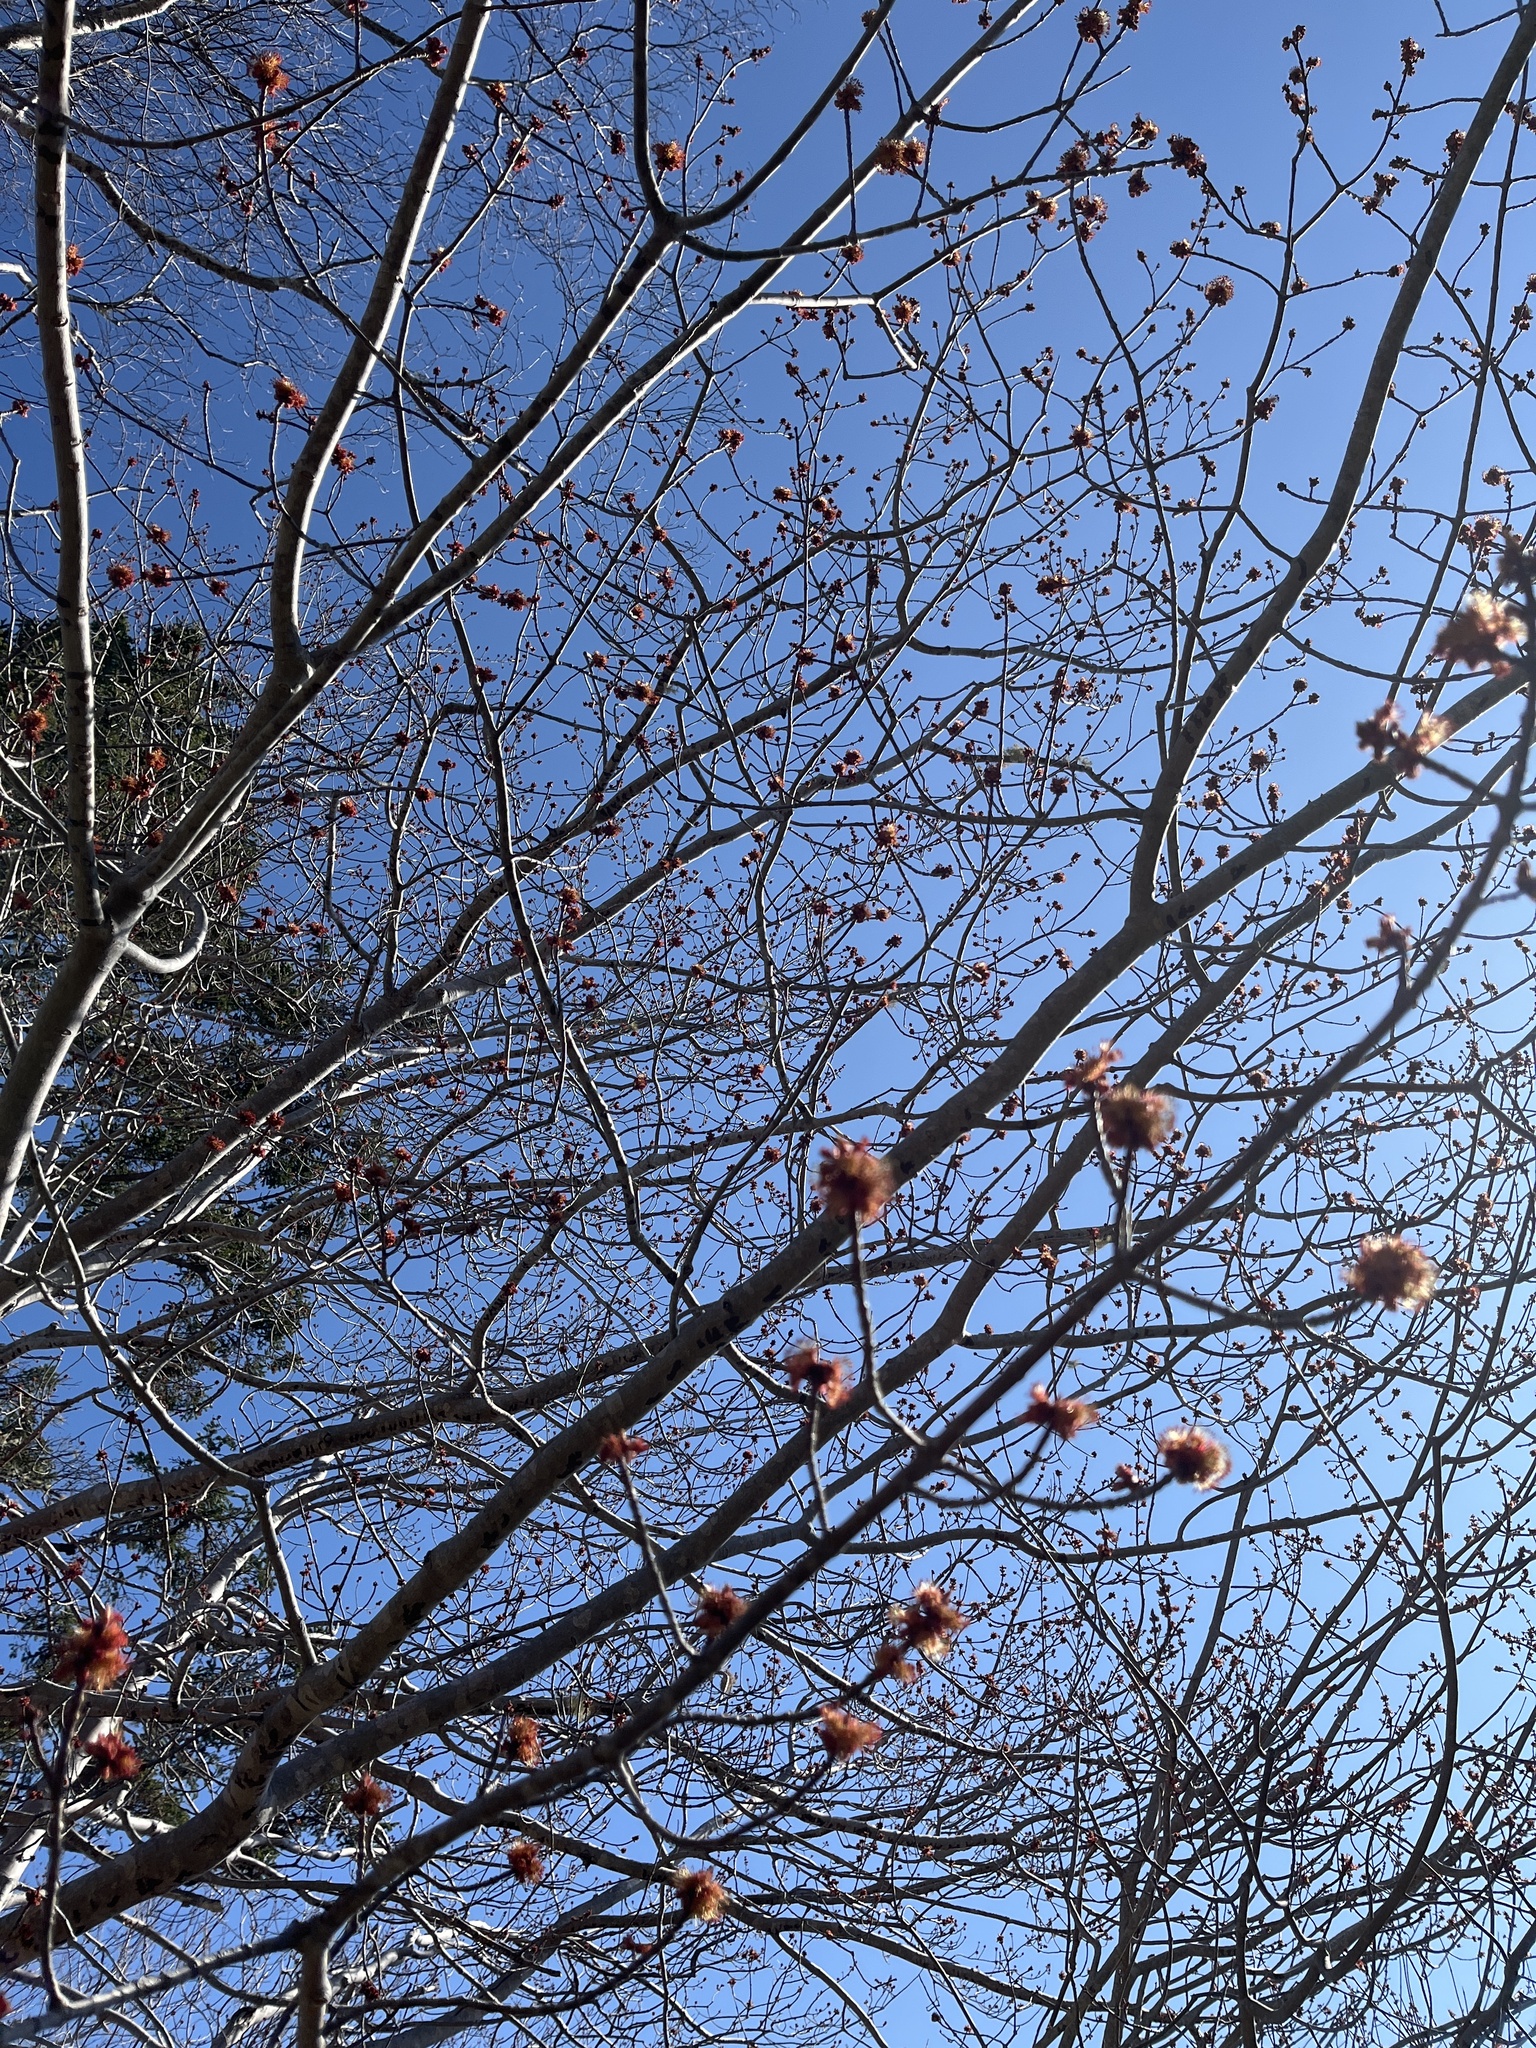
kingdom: Plantae
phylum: Tracheophyta
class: Magnoliopsida
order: Sapindales
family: Sapindaceae
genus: Acer
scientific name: Acer rubrum
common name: Red maple
